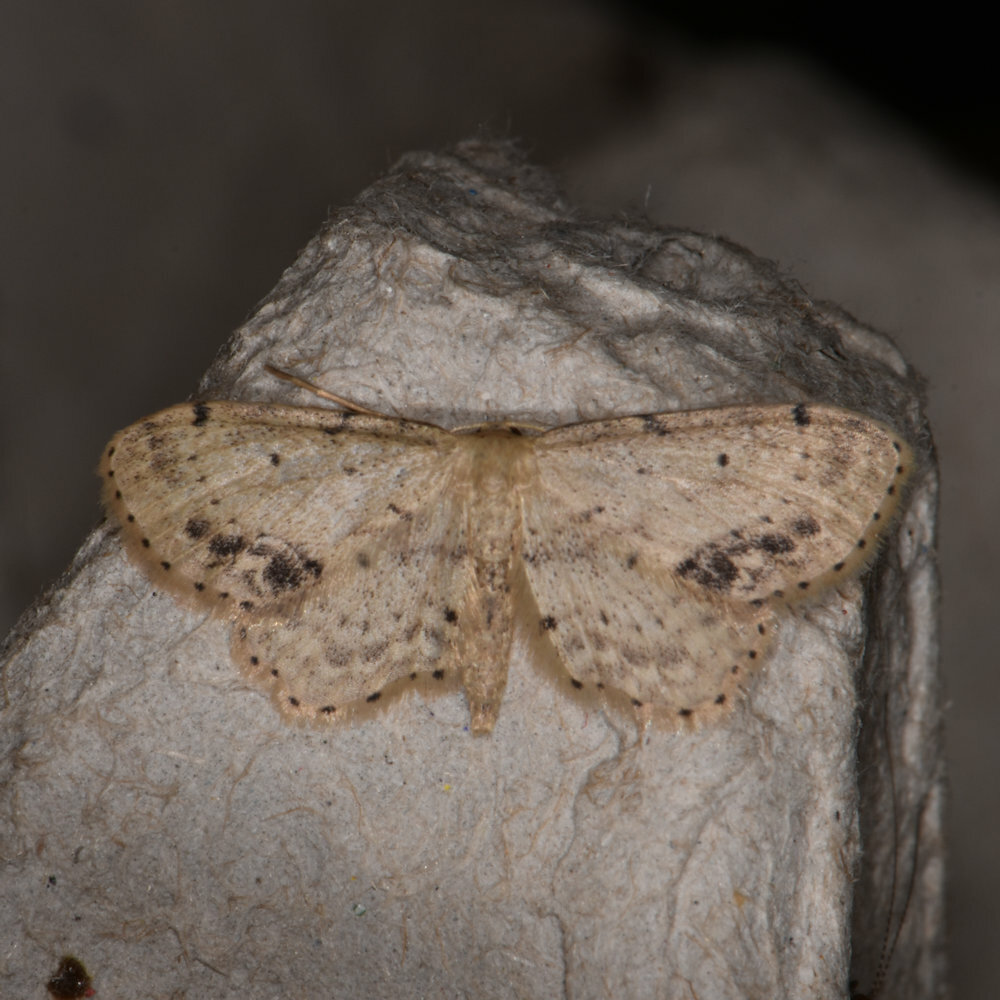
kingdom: Animalia
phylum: Arthropoda
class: Insecta
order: Lepidoptera
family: Geometridae
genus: Idaea
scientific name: Idaea dimidiata
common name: Single-dotted wave
